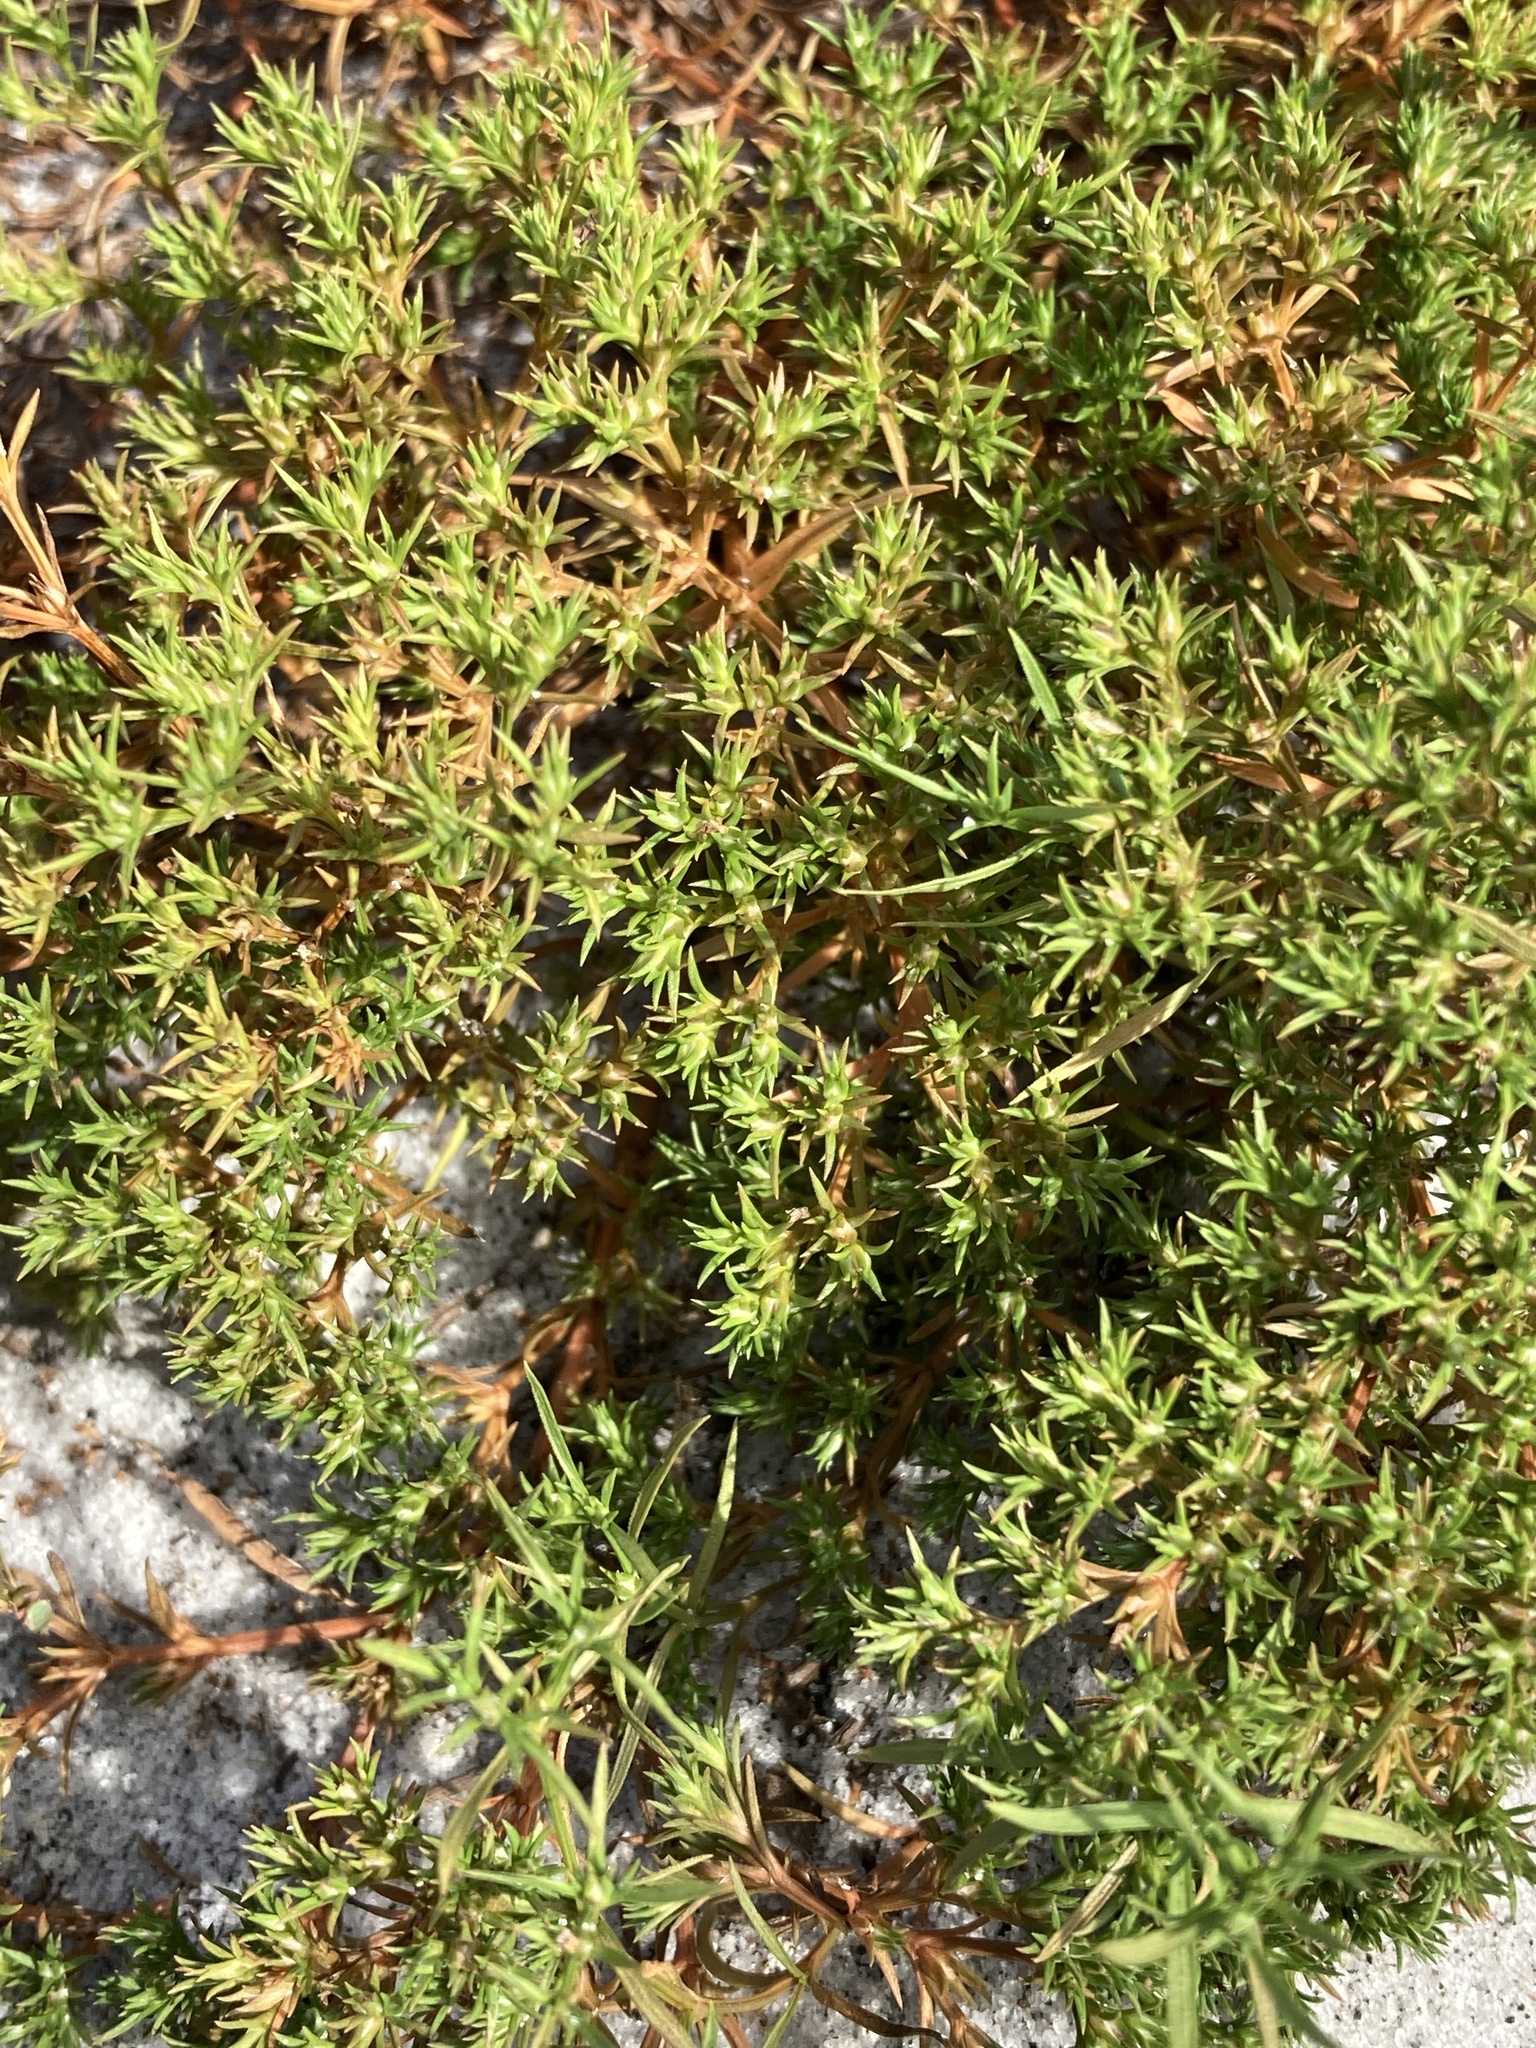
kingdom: Plantae
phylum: Tracheophyta
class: Magnoliopsida
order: Lamiales
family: Tetrachondraceae
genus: Polypremum
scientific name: Polypremum procumbens
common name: Juniper-leaf
